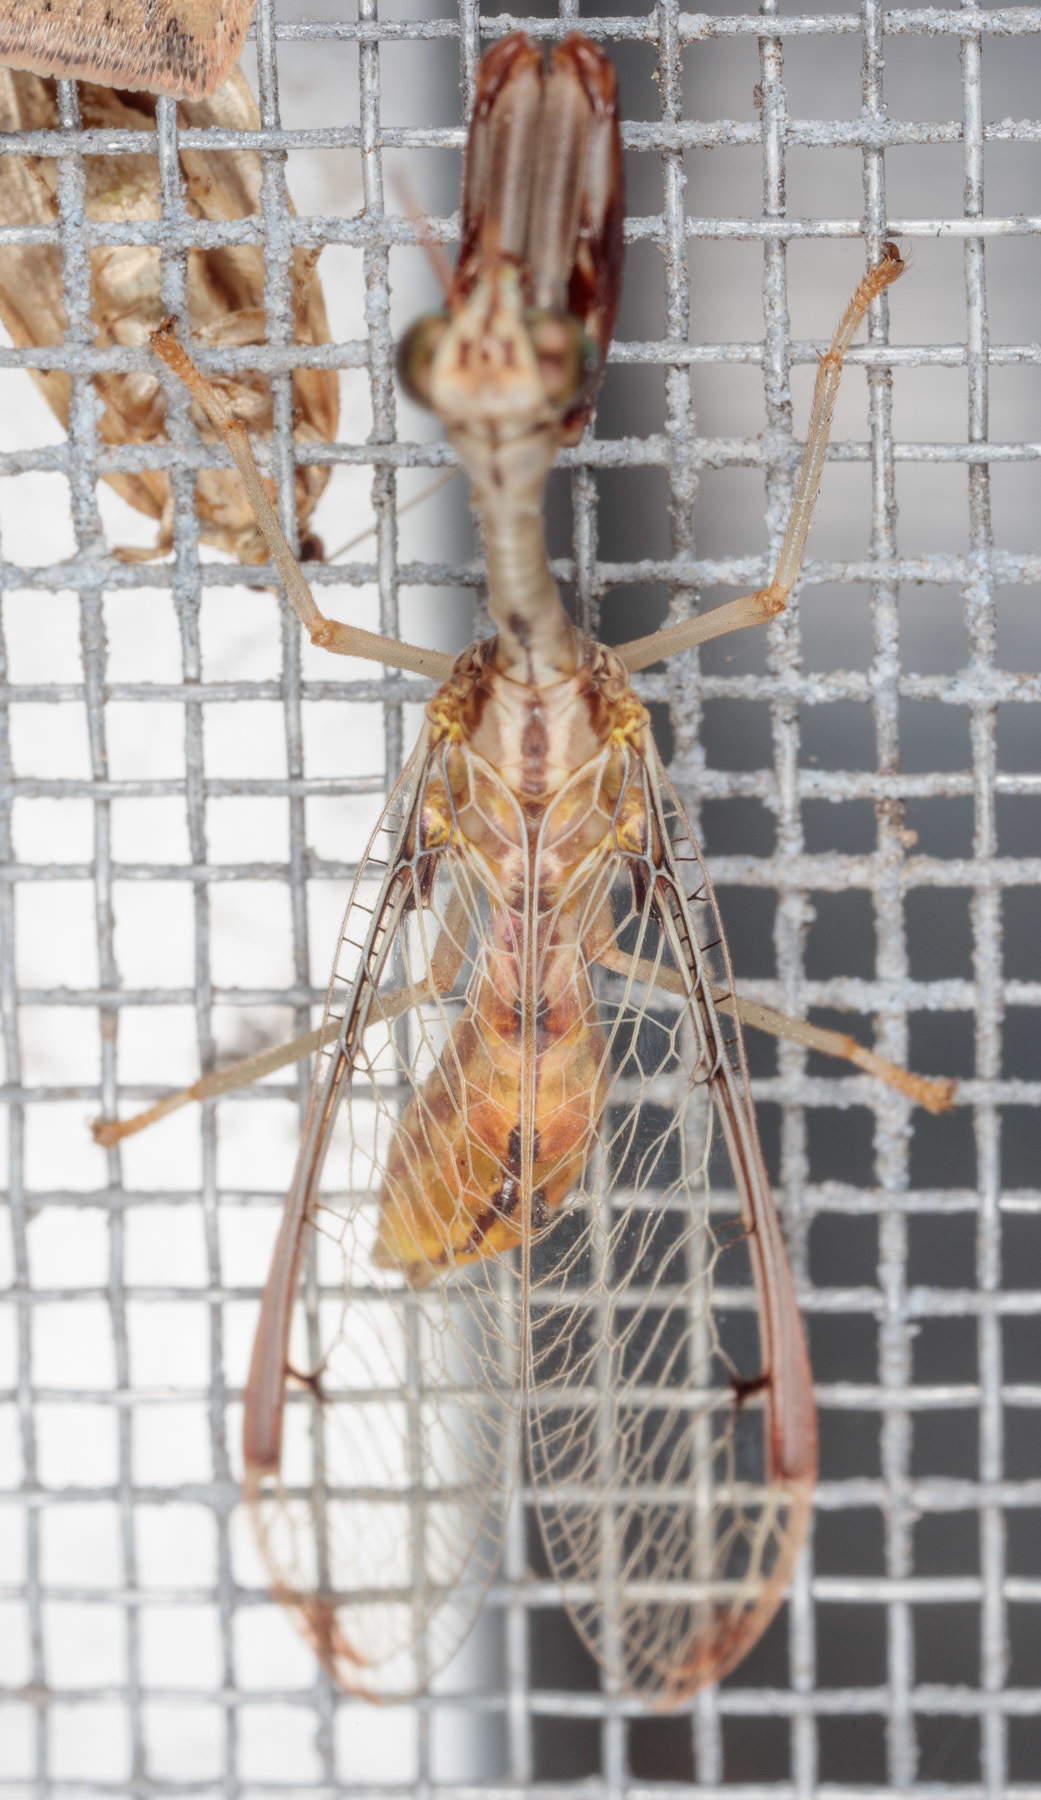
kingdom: Animalia
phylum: Arthropoda
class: Insecta
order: Neuroptera
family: Mantispidae
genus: Dicromantispa
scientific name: Dicromantispa interrupta
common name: Four-spotted mantidfly
